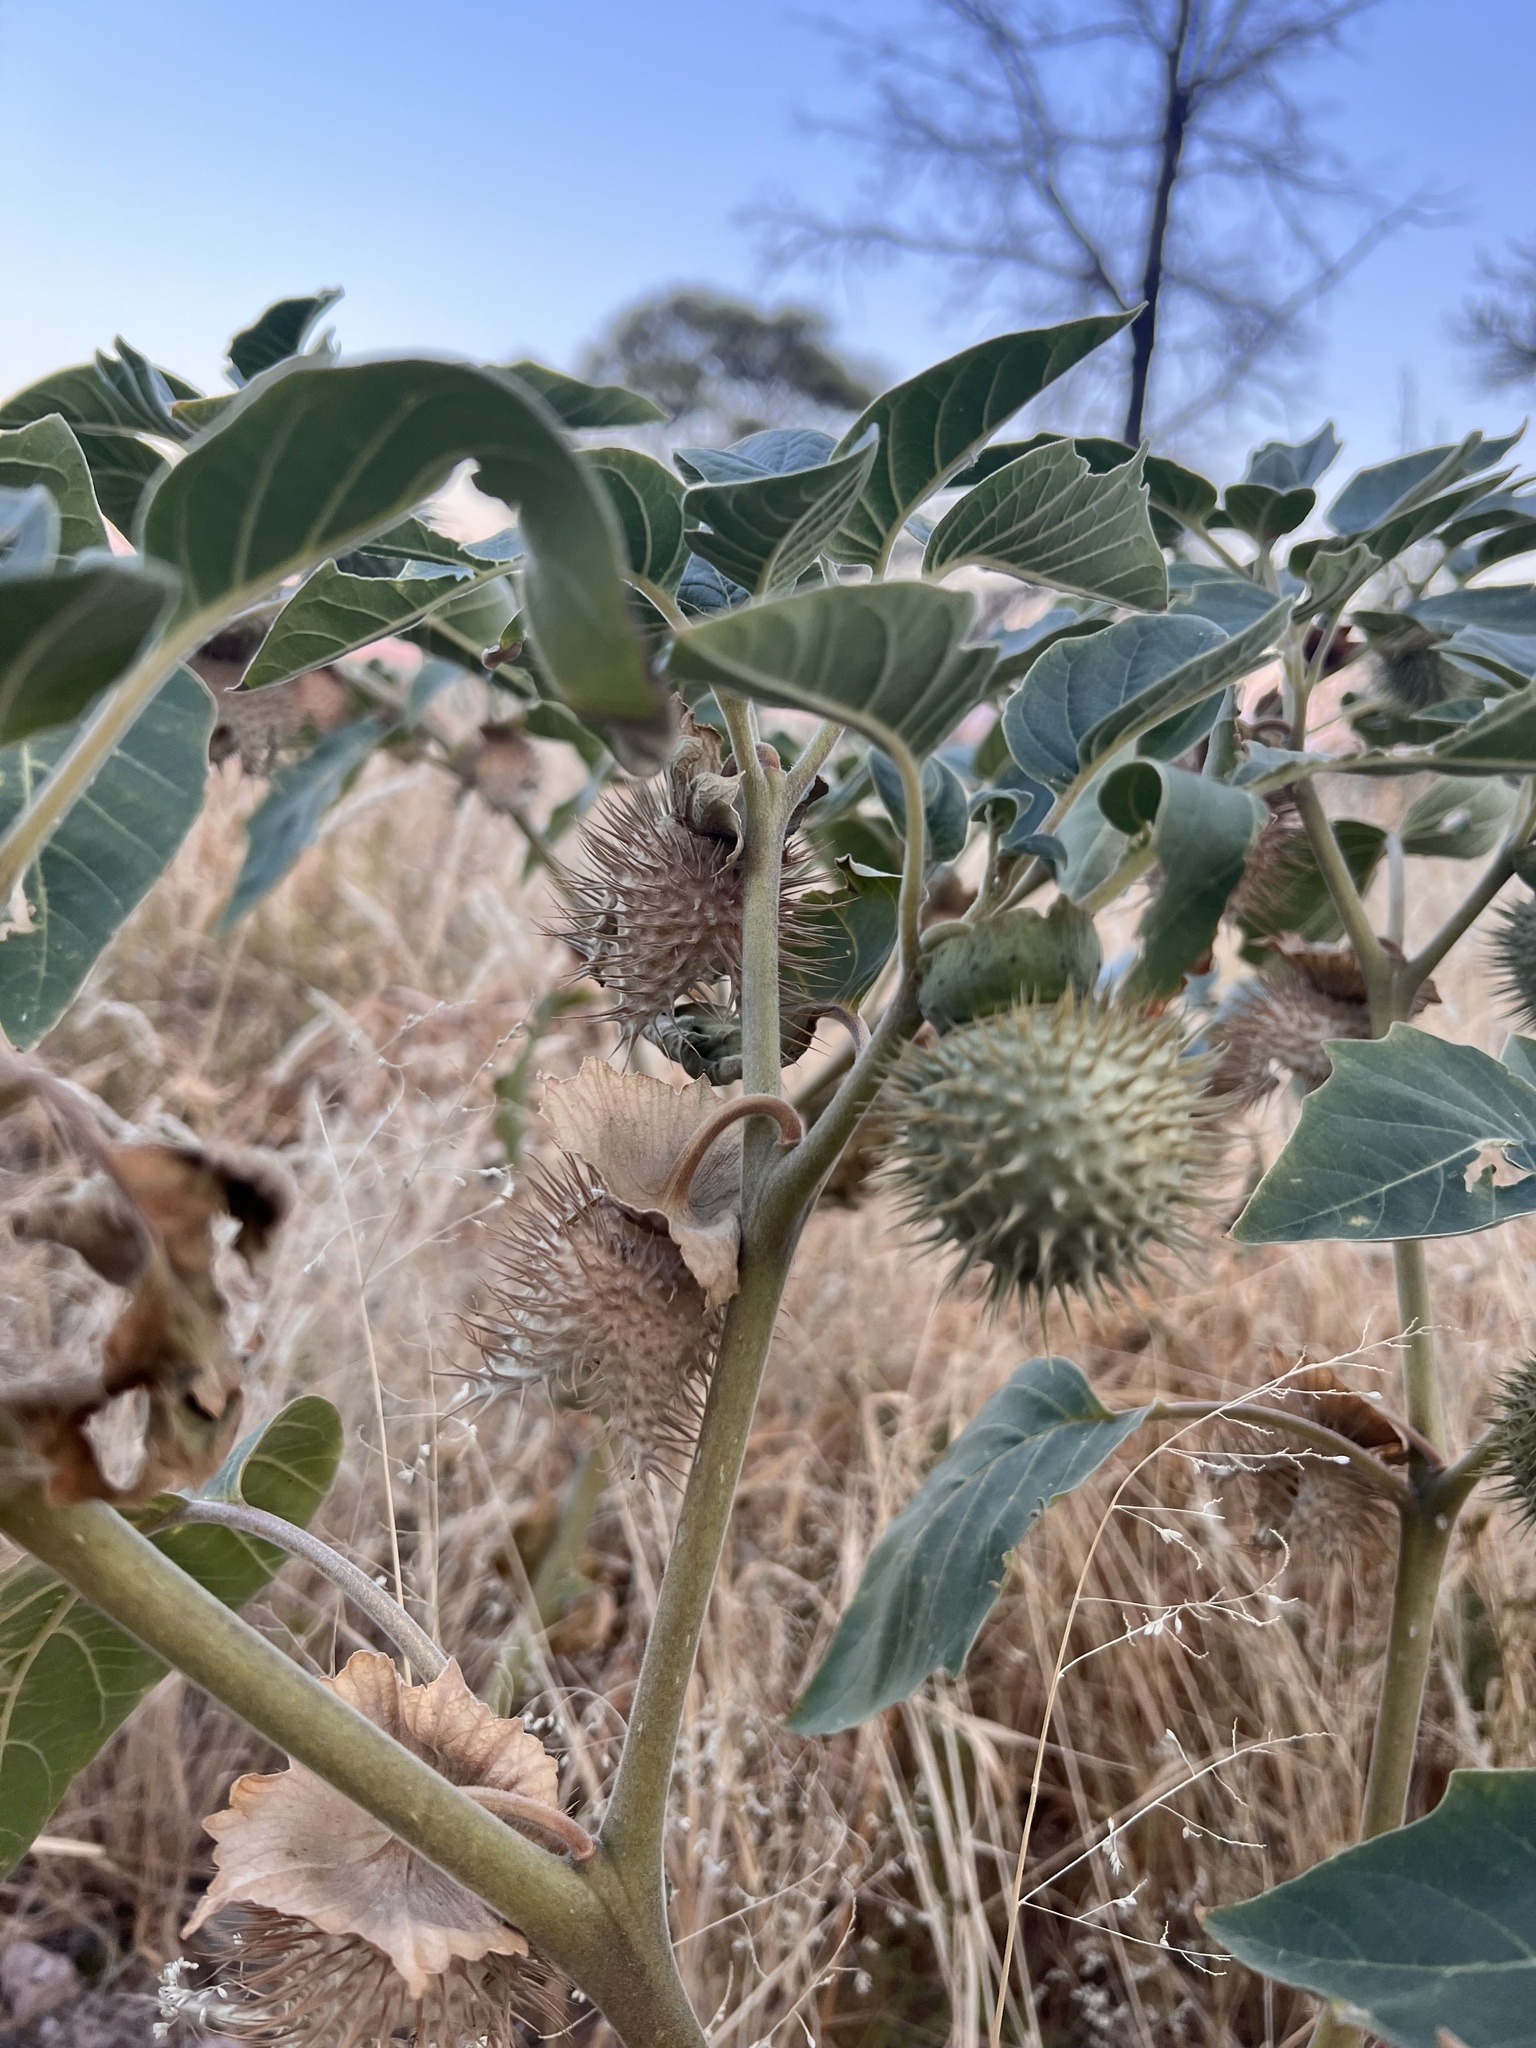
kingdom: Plantae
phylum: Tracheophyta
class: Magnoliopsida
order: Solanales
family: Solanaceae
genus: Datura
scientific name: Datura innoxia
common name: Downy thorn-apple
